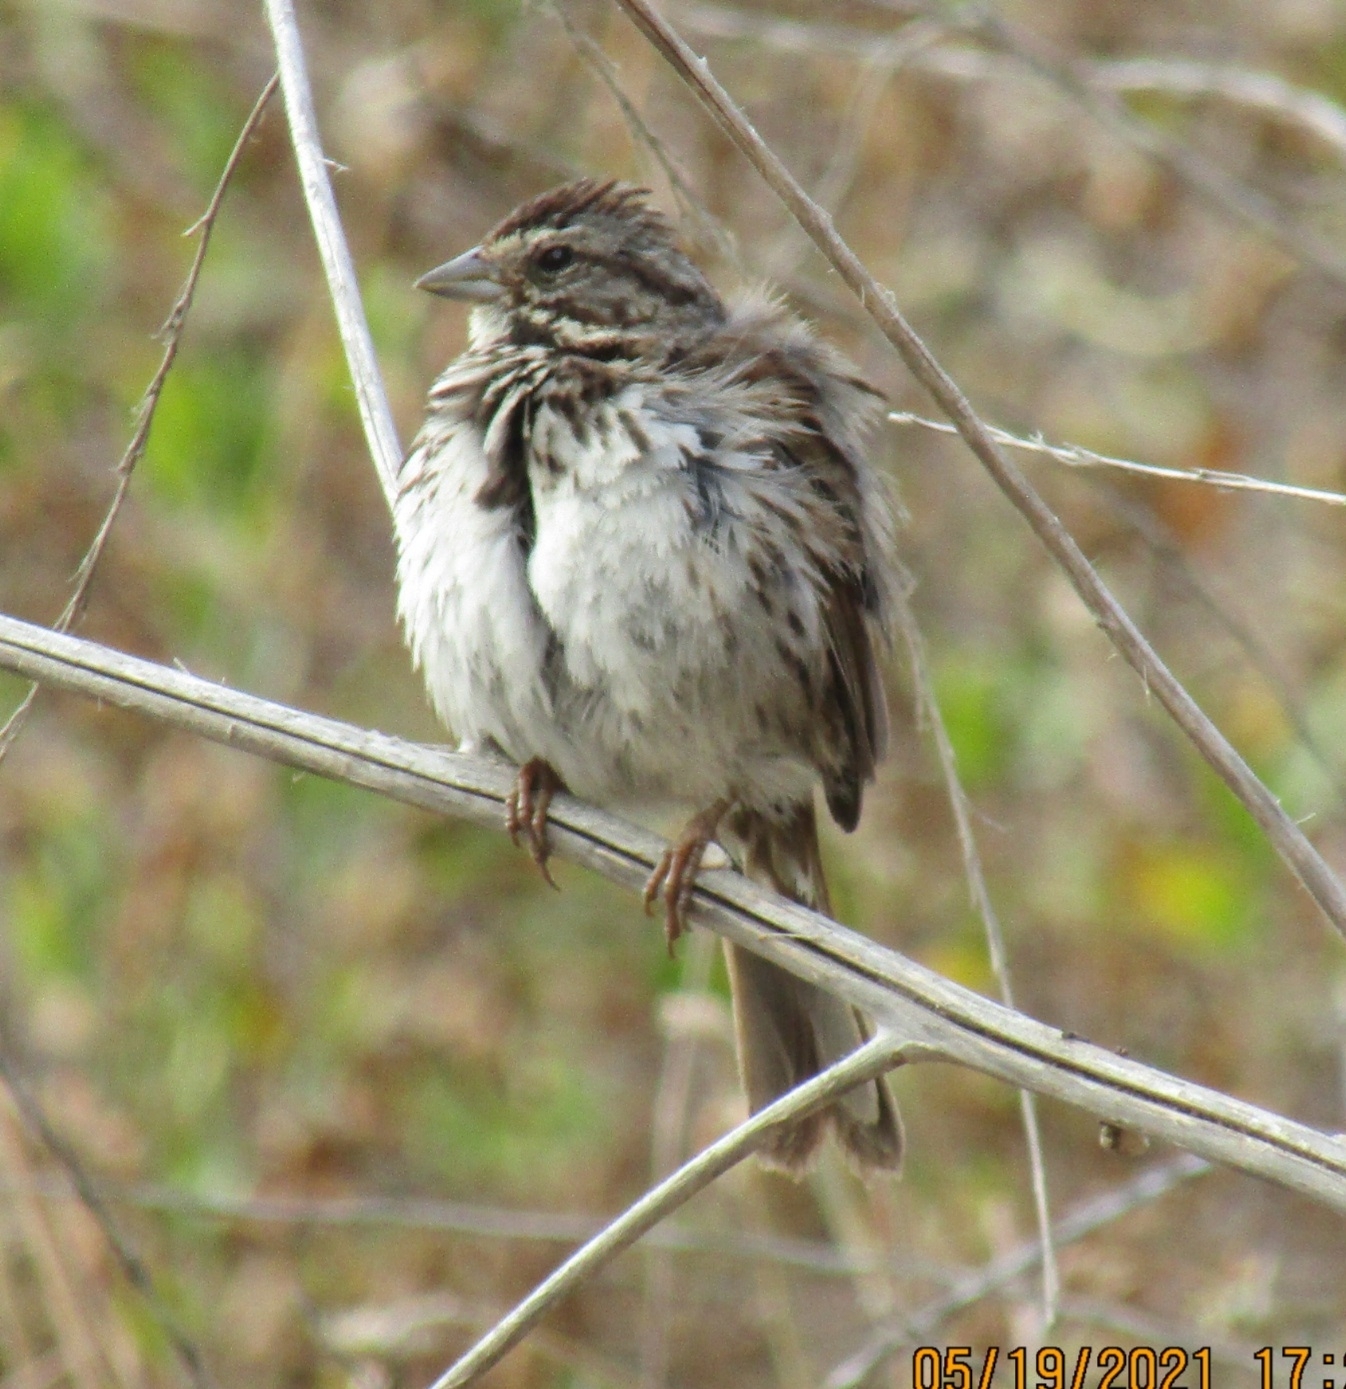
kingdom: Animalia
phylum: Chordata
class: Aves
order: Passeriformes
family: Passerellidae
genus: Melospiza
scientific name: Melospiza melodia
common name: Song sparrow
